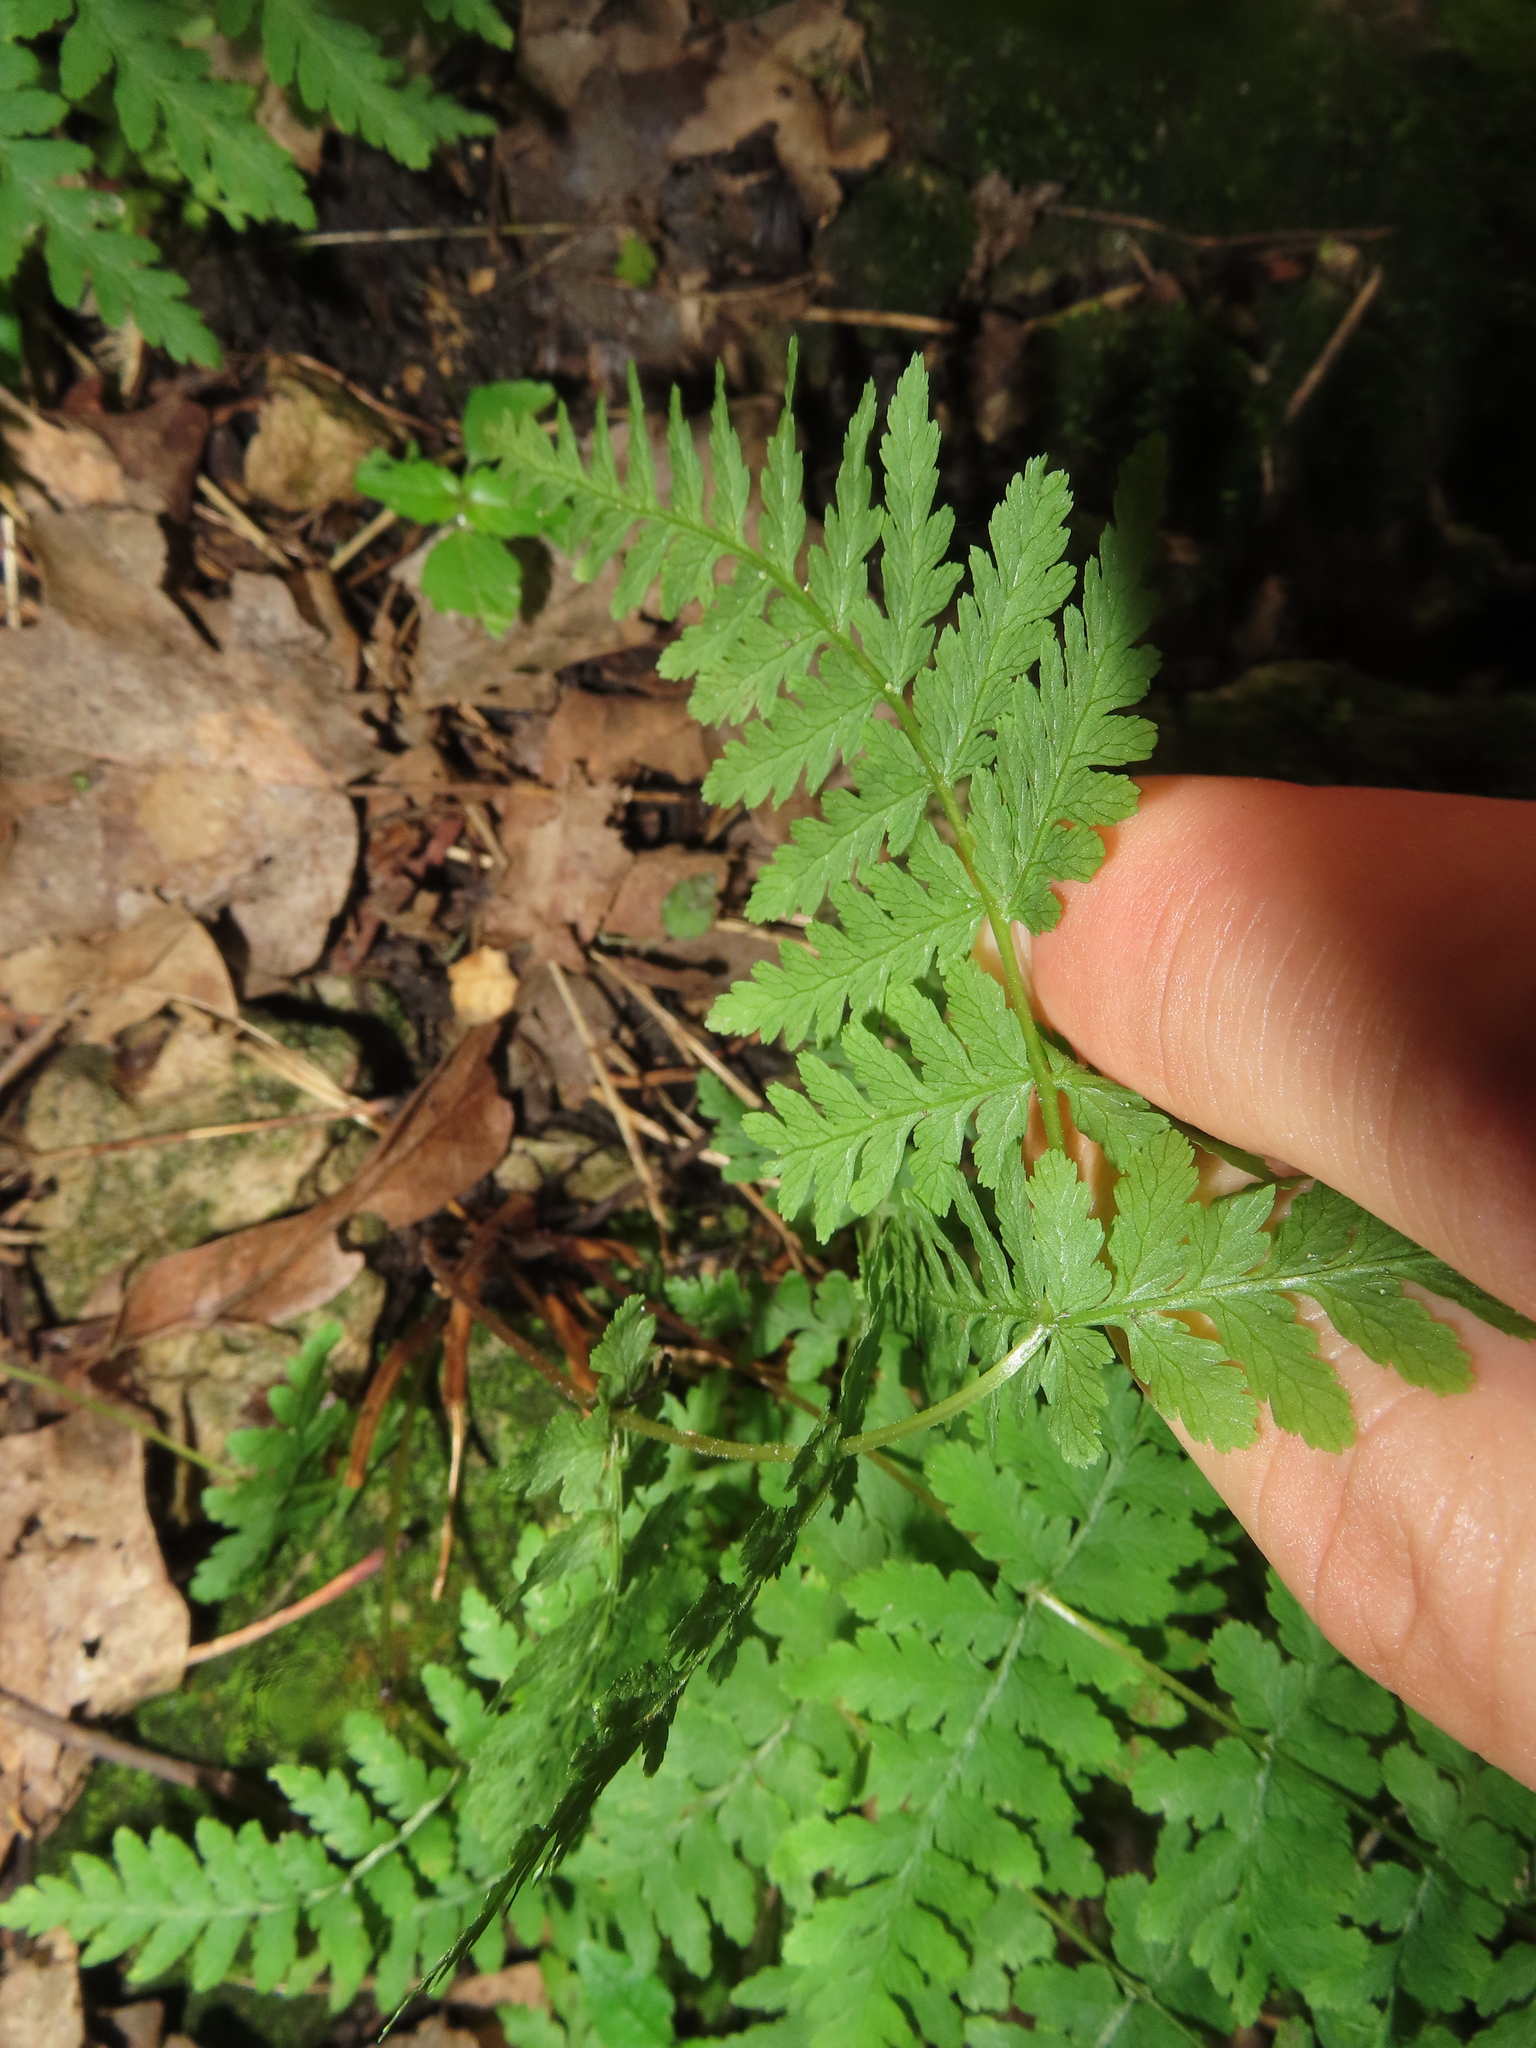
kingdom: Plantae
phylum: Tracheophyta
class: Polypodiopsida
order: Polypodiales
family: Cystopteridaceae
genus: Cystopteris
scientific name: Cystopteris bulbifera
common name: Bulblet bladder fern
